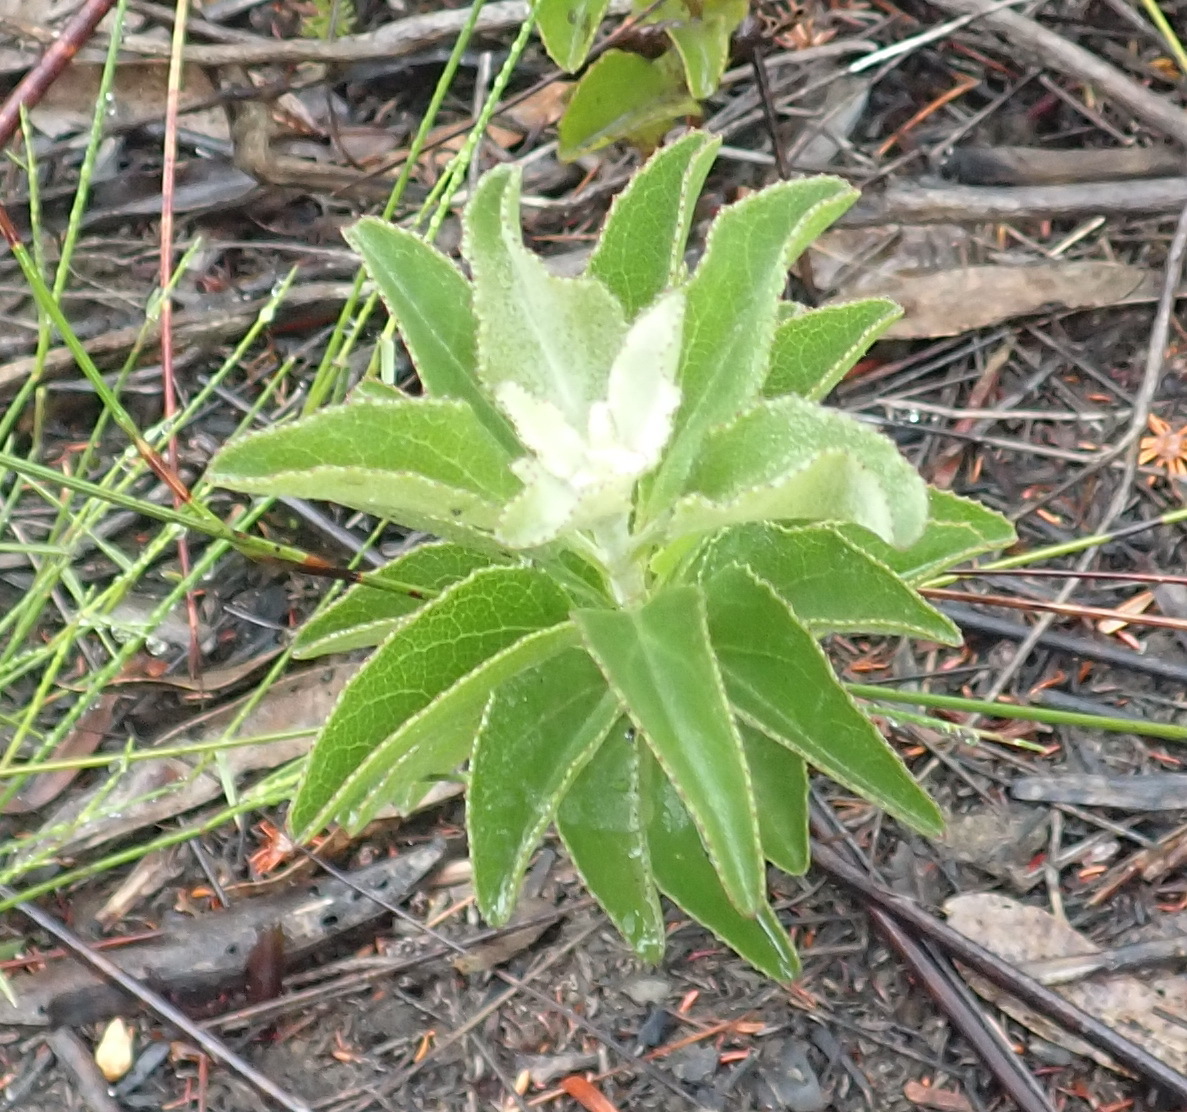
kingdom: Plantae
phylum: Tracheophyta
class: Magnoliopsida
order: Asterales
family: Asteraceae
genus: Senecio
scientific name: Senecio crenatus
